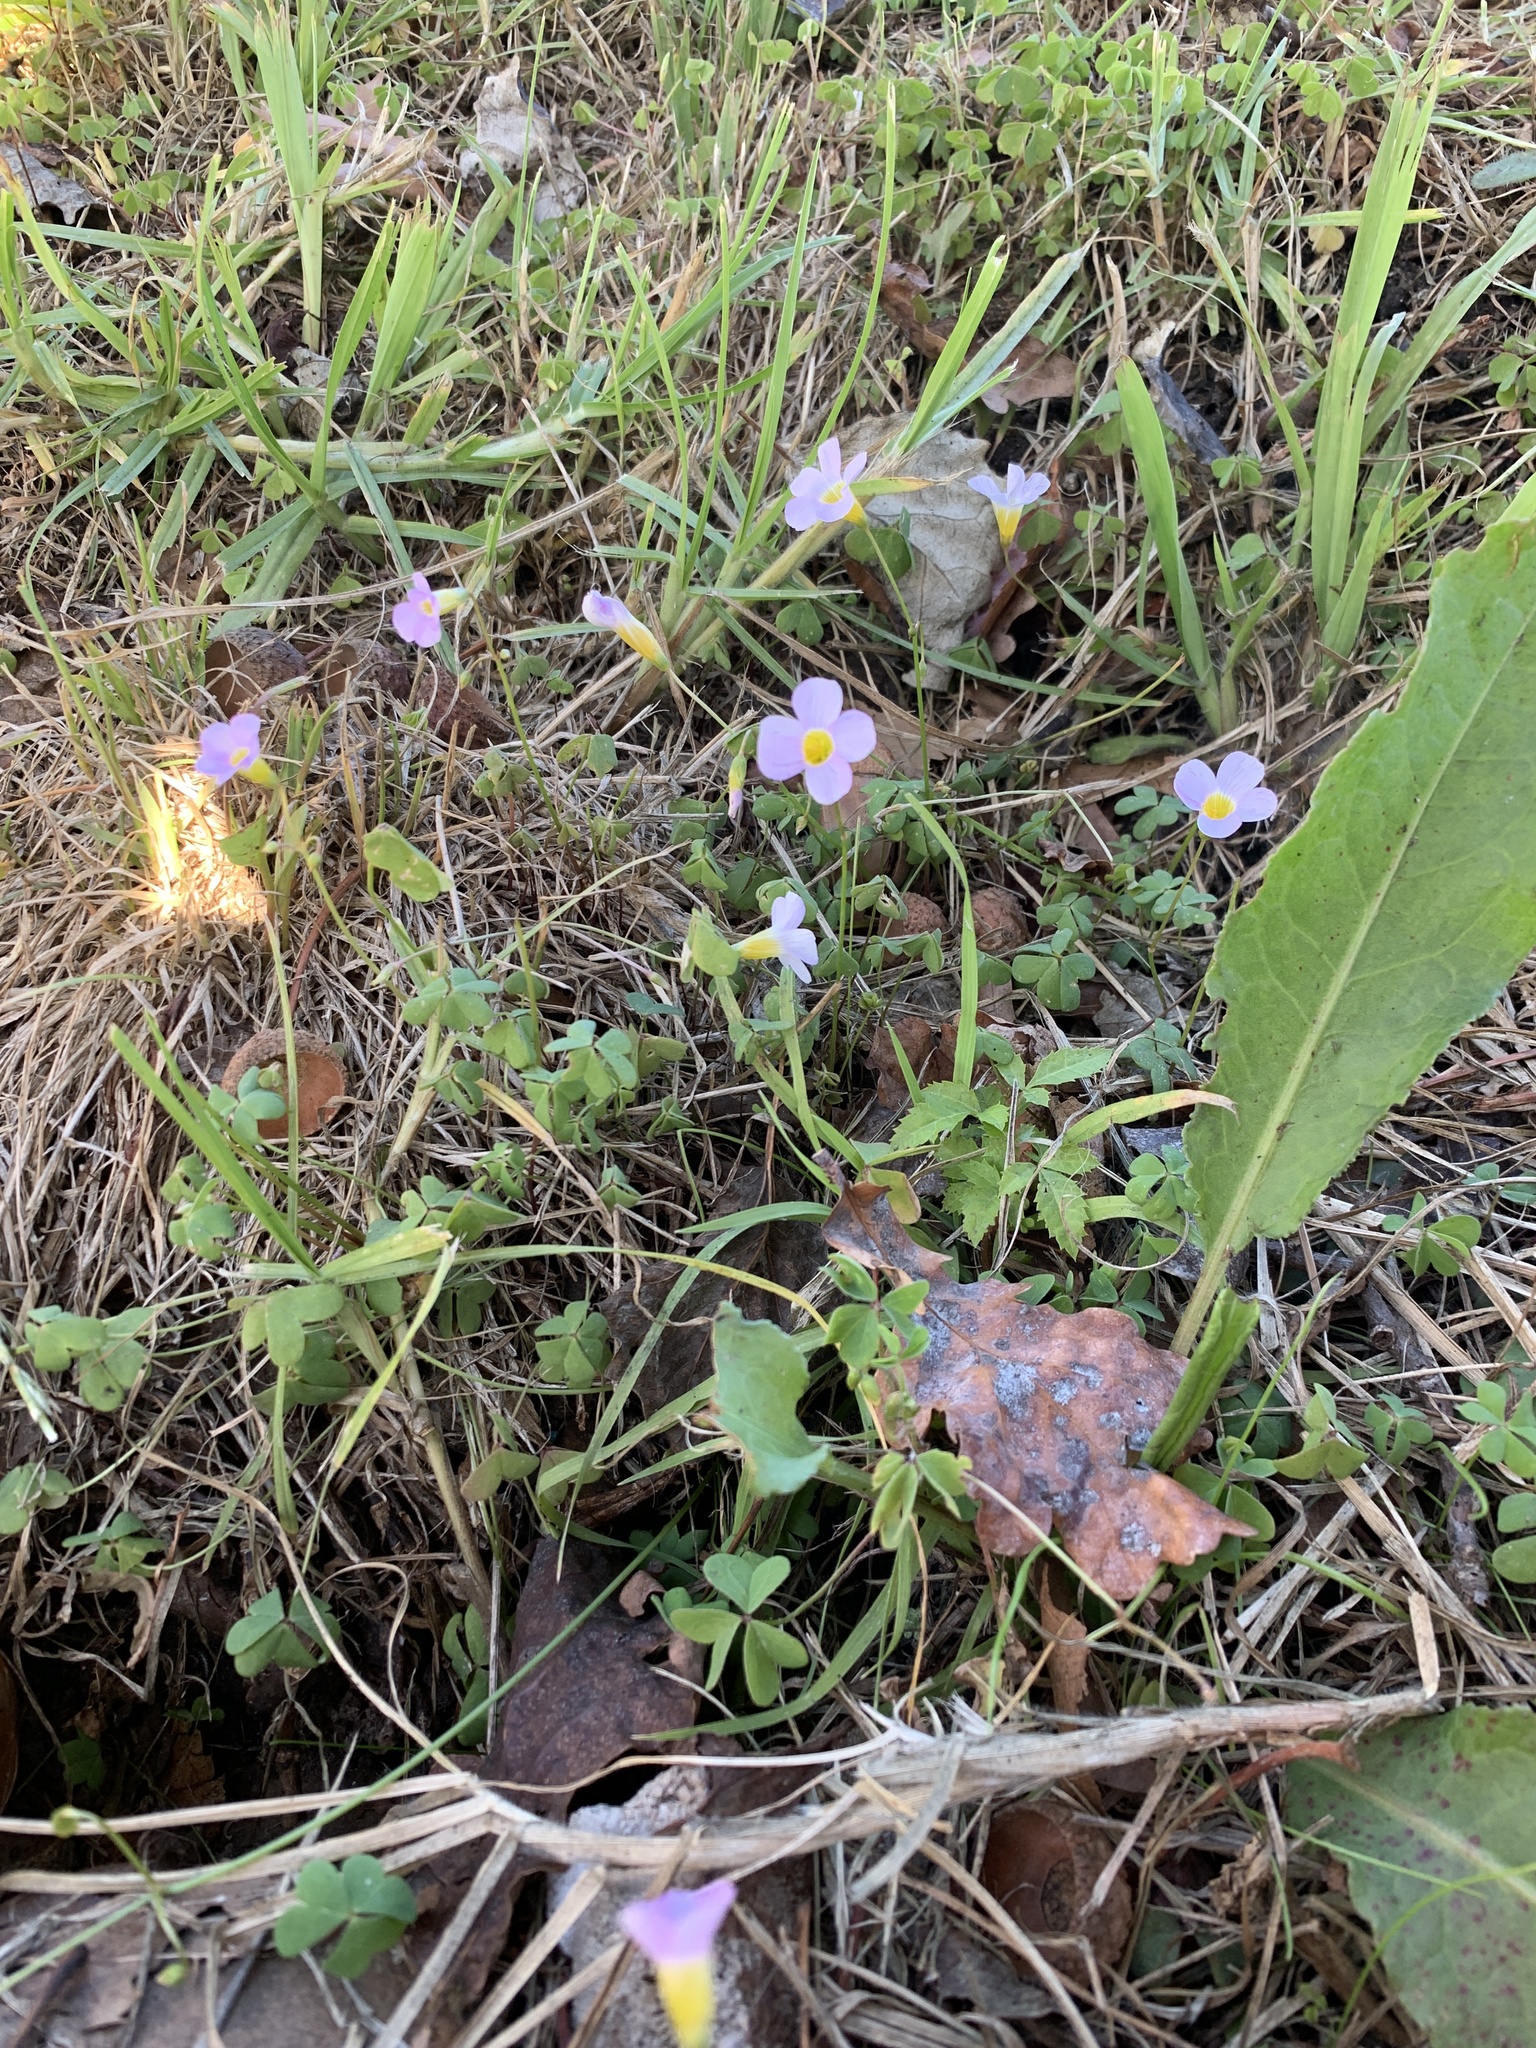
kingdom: Plantae
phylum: Tracheophyta
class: Magnoliopsida
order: Oxalidales
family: Oxalidaceae
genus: Oxalis
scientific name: Oxalis caprina
